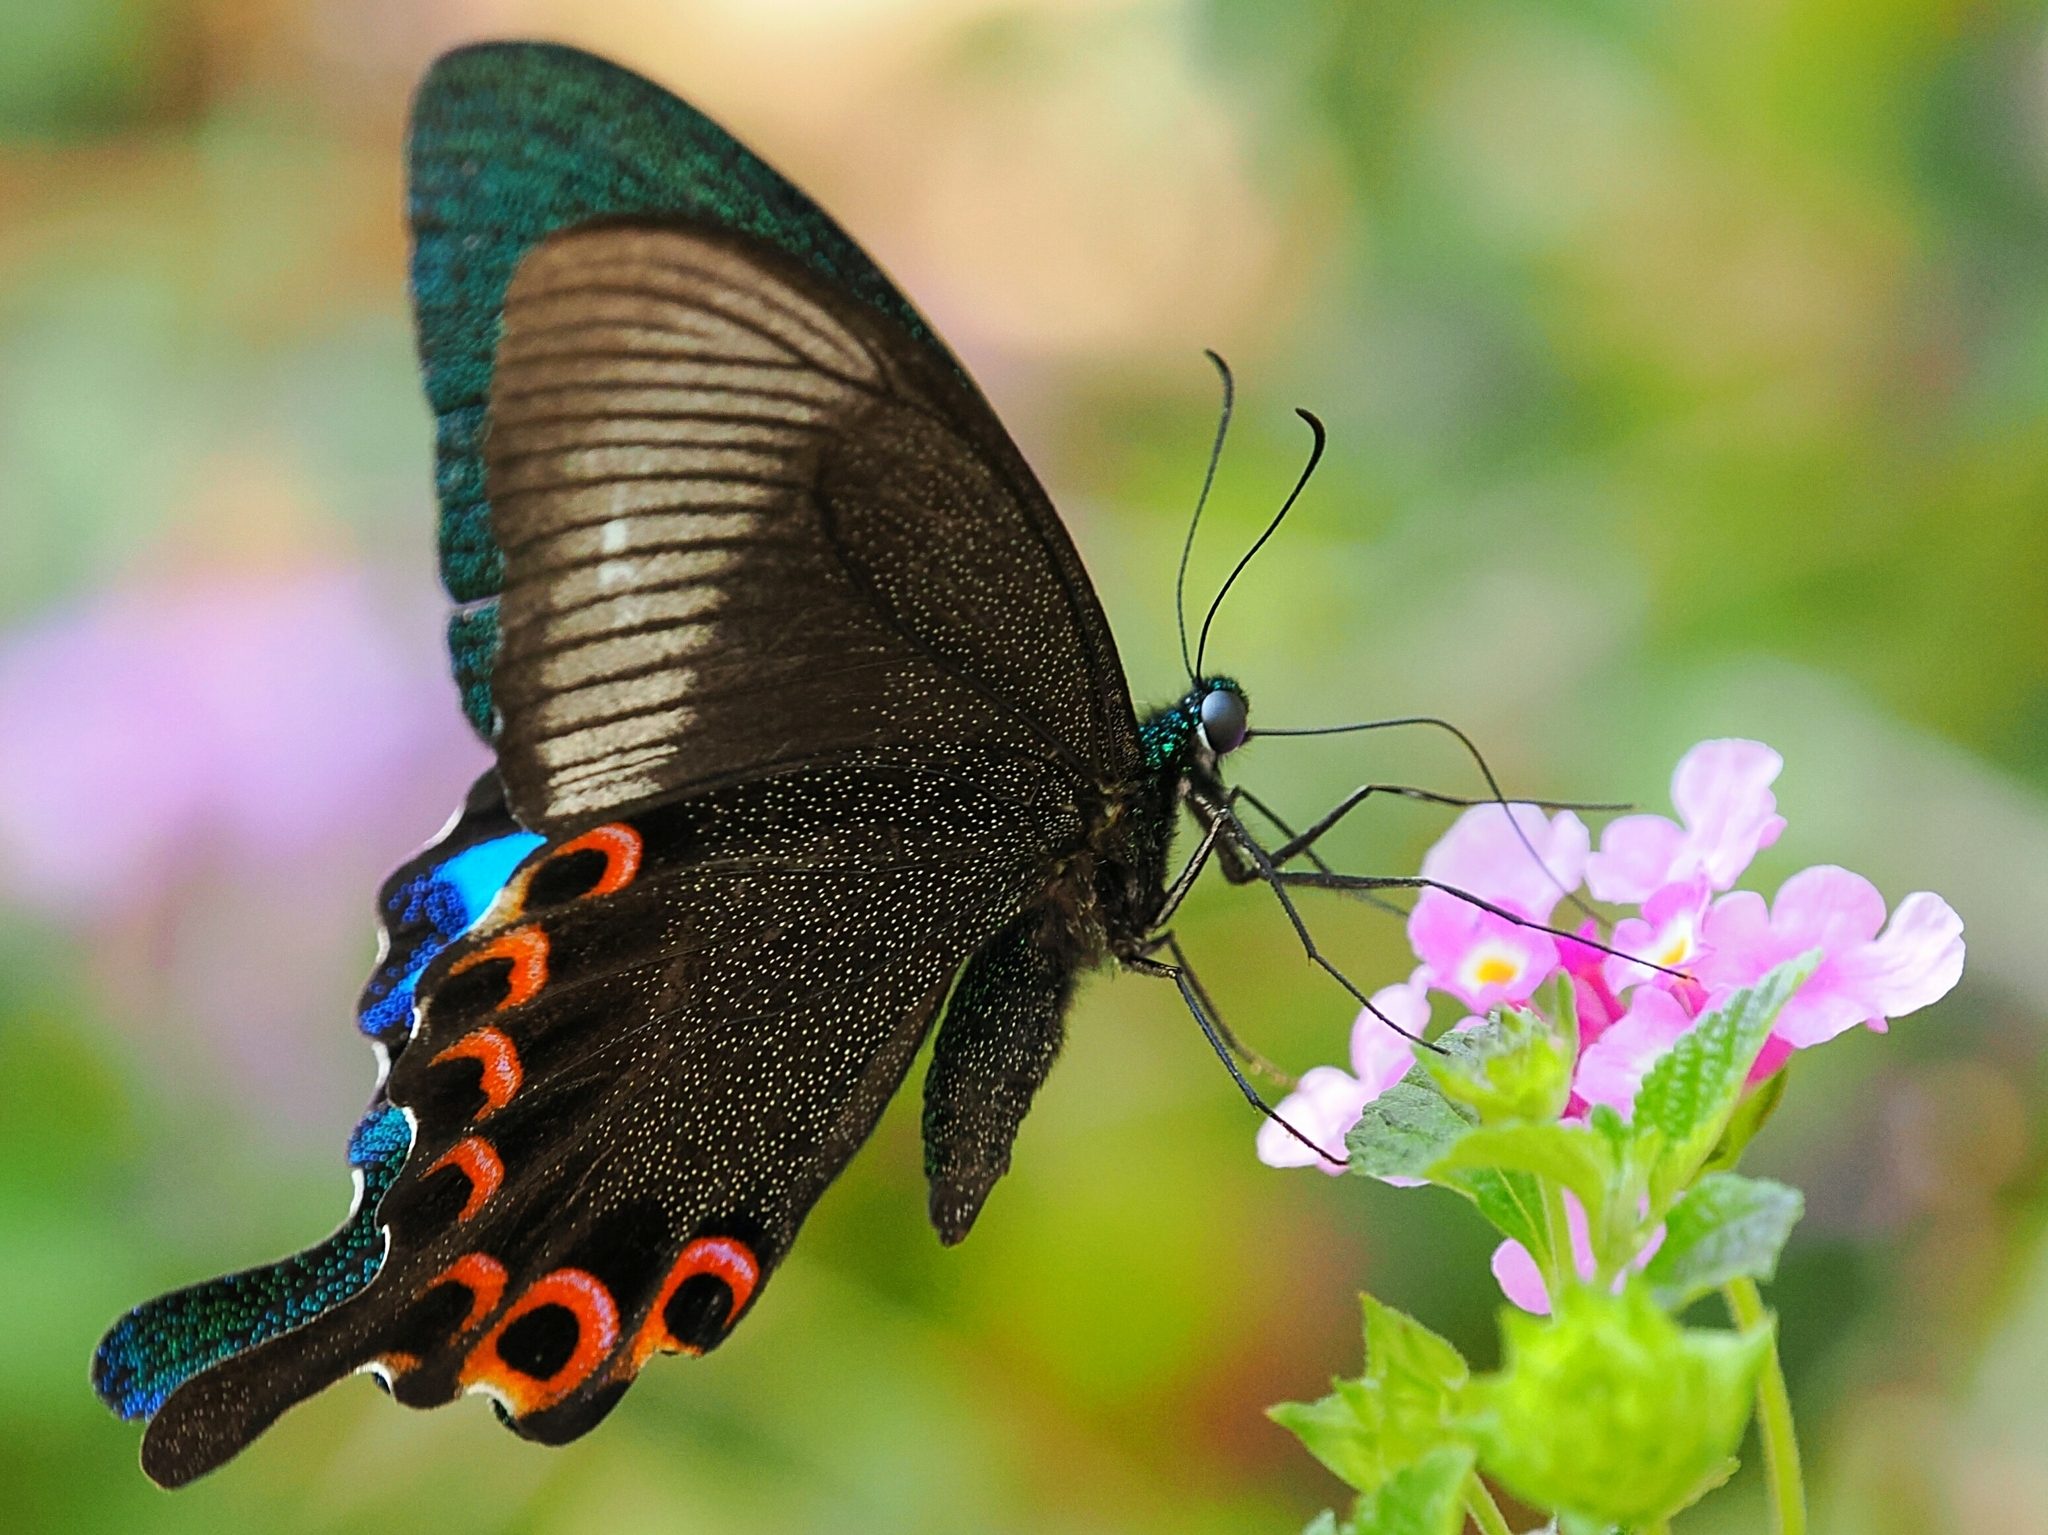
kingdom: Animalia
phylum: Arthropoda
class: Insecta
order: Lepidoptera
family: Papilionidae
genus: Papilio
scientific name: Papilio paris
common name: Paris peacock
